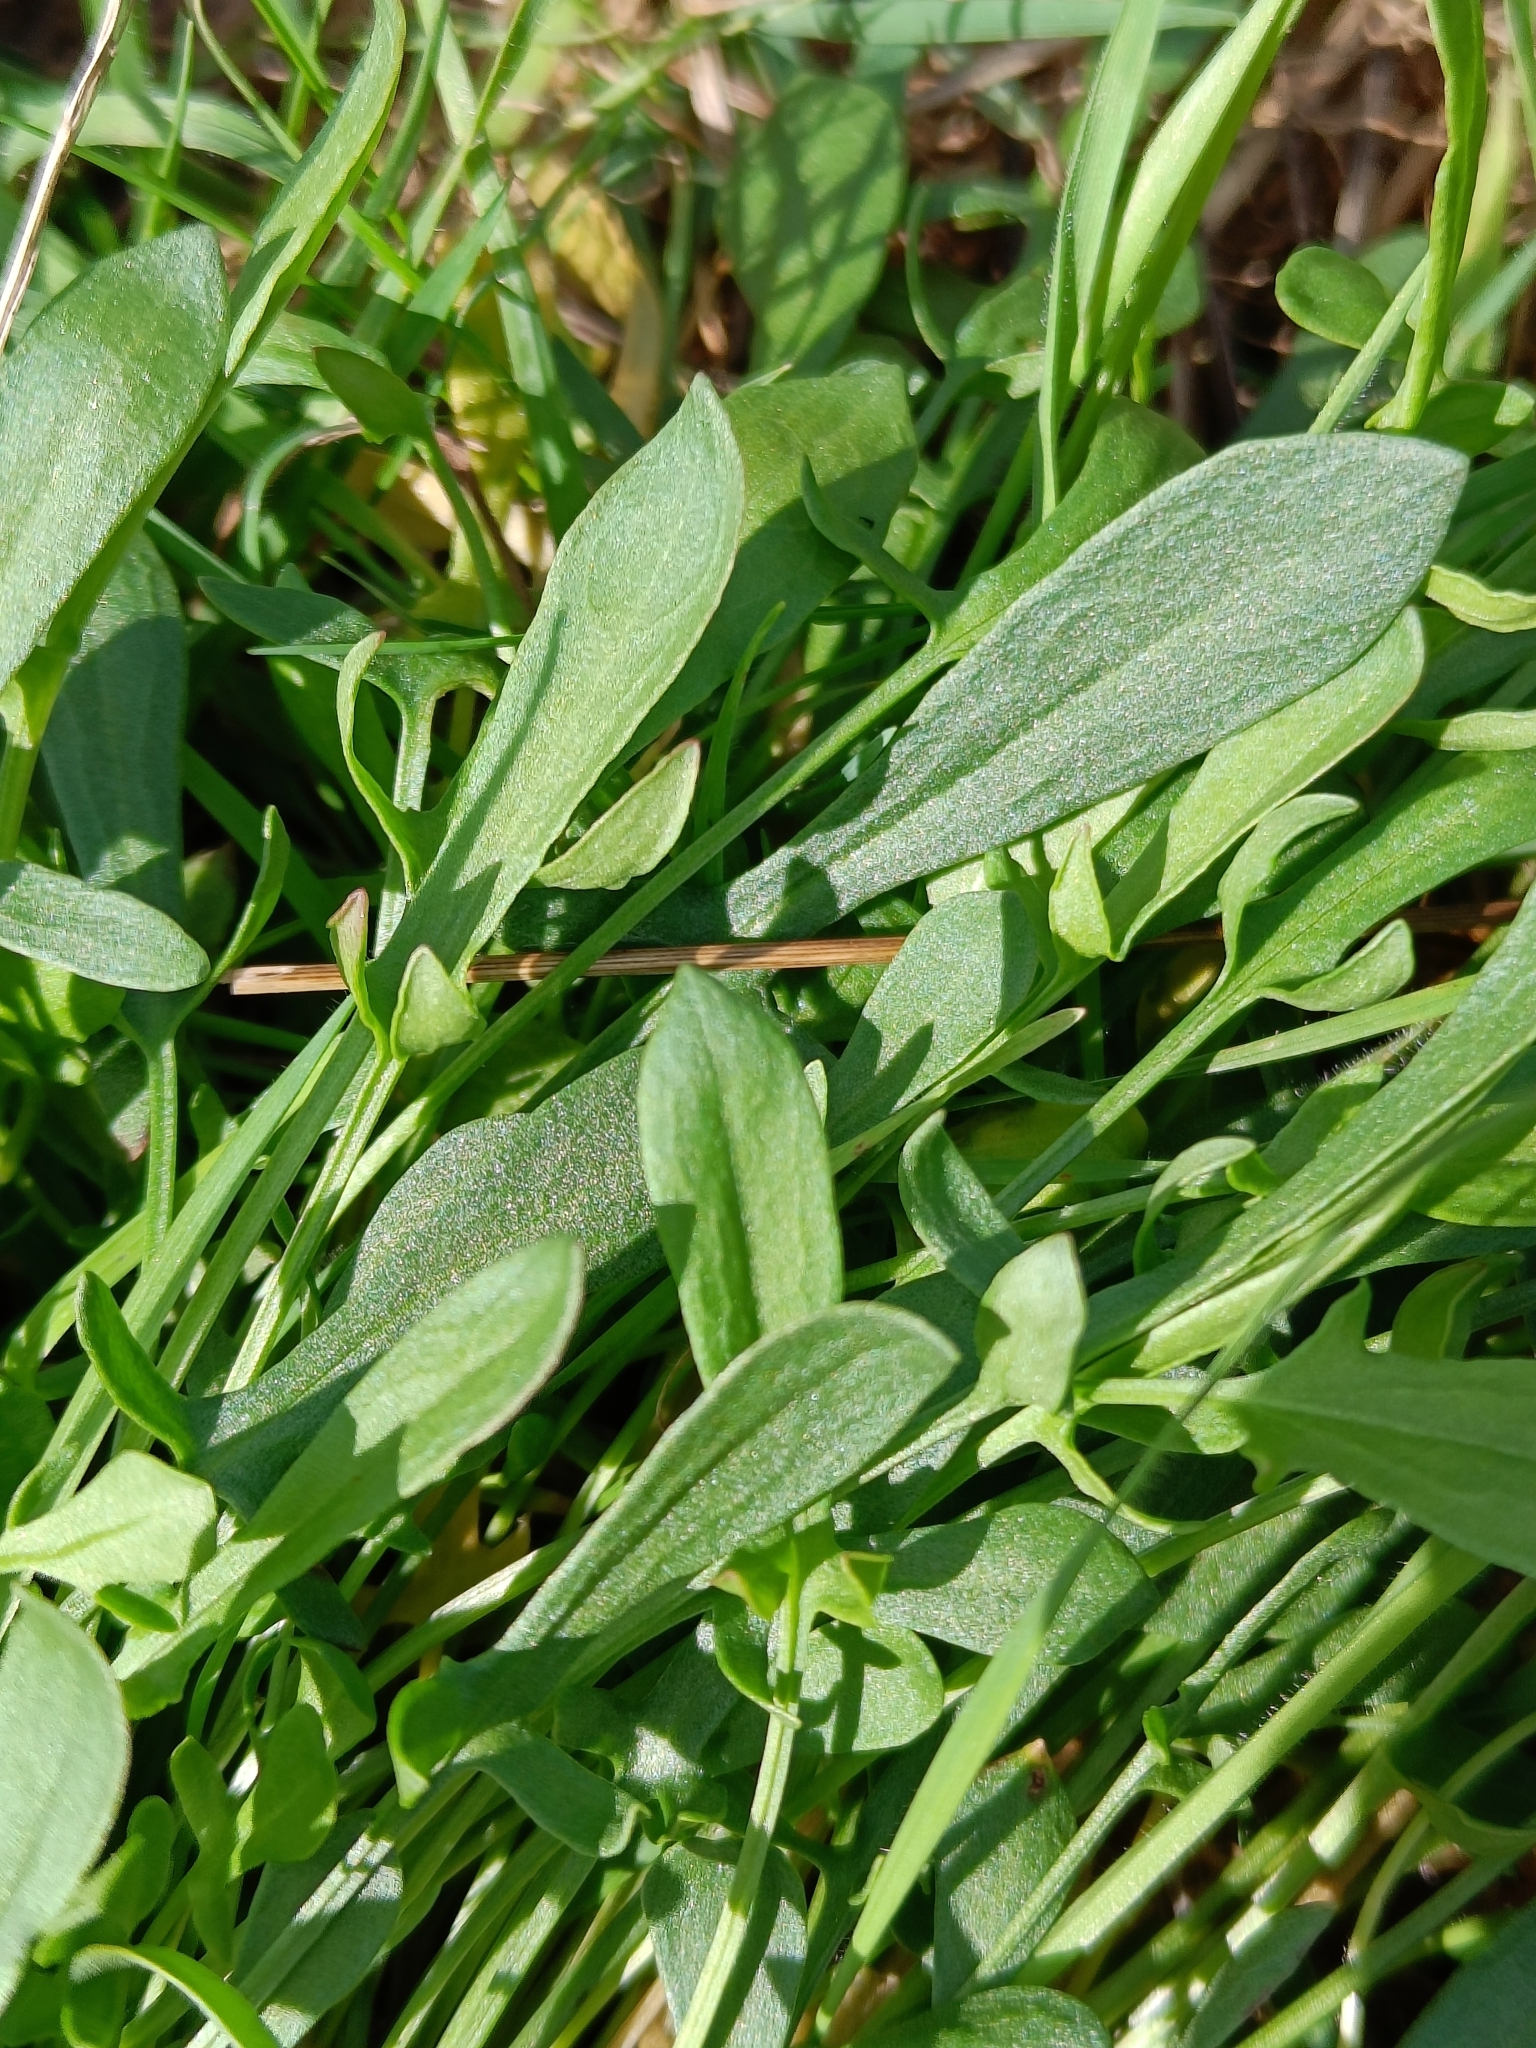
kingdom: Plantae
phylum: Tracheophyta
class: Magnoliopsida
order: Caryophyllales
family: Polygonaceae
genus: Rumex
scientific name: Rumex acetosella
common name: Common sheep sorrel
